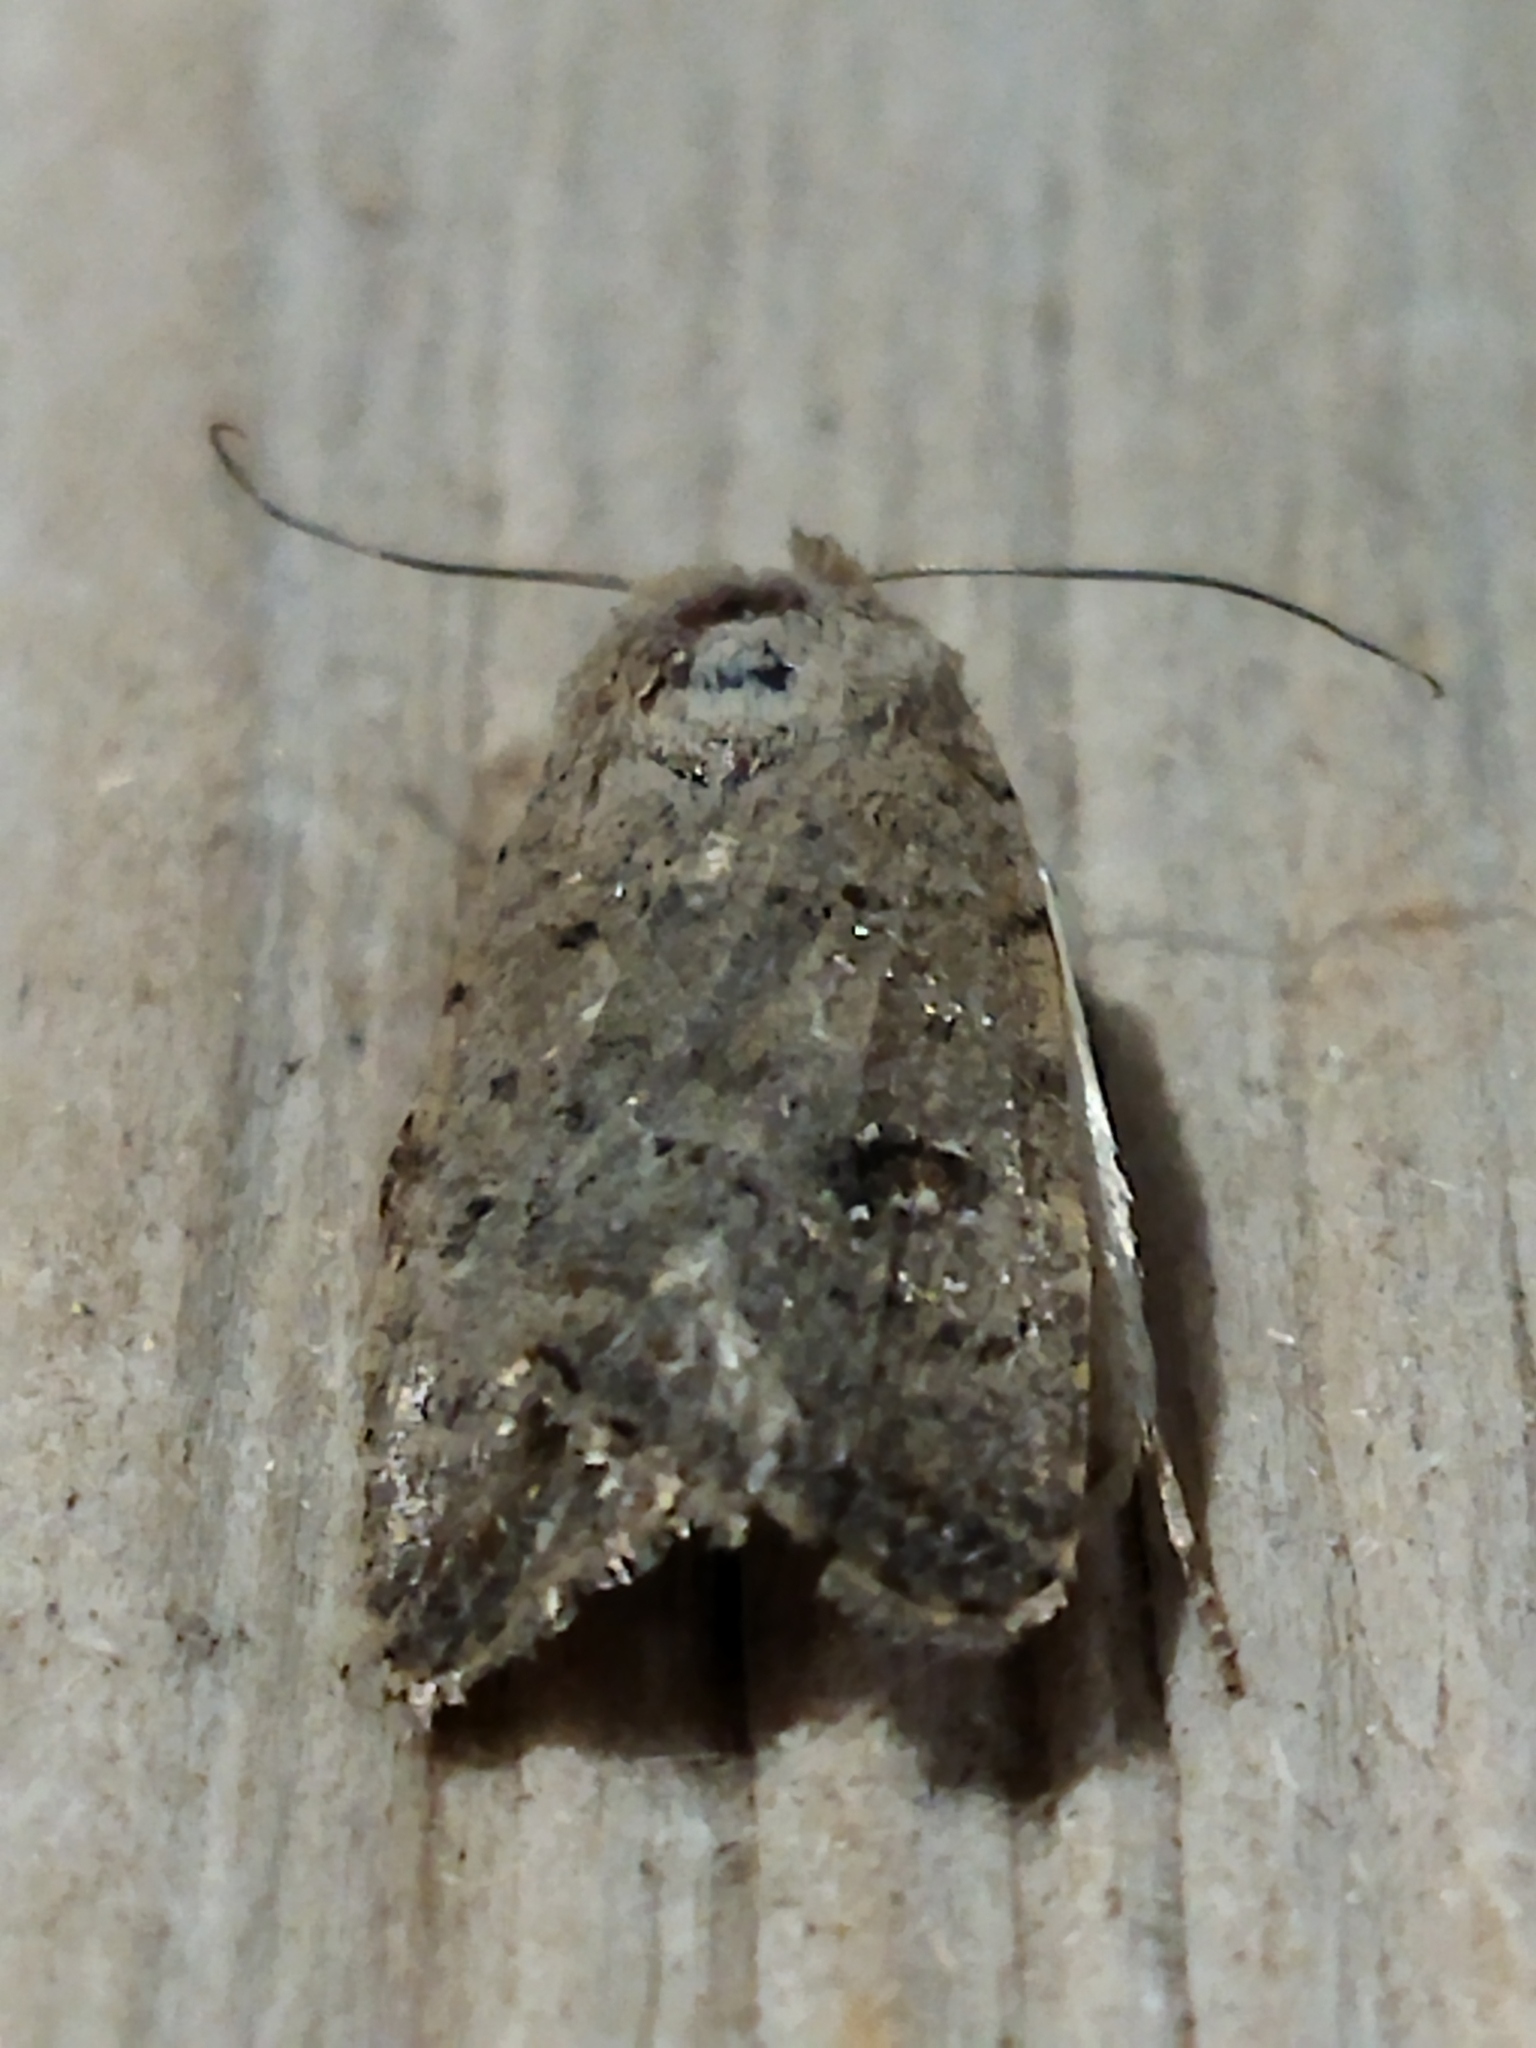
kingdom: Animalia
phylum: Arthropoda
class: Insecta
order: Lepidoptera
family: Noctuidae
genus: Caradrina
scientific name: Caradrina clavipalpis
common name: Pale mottled willow
